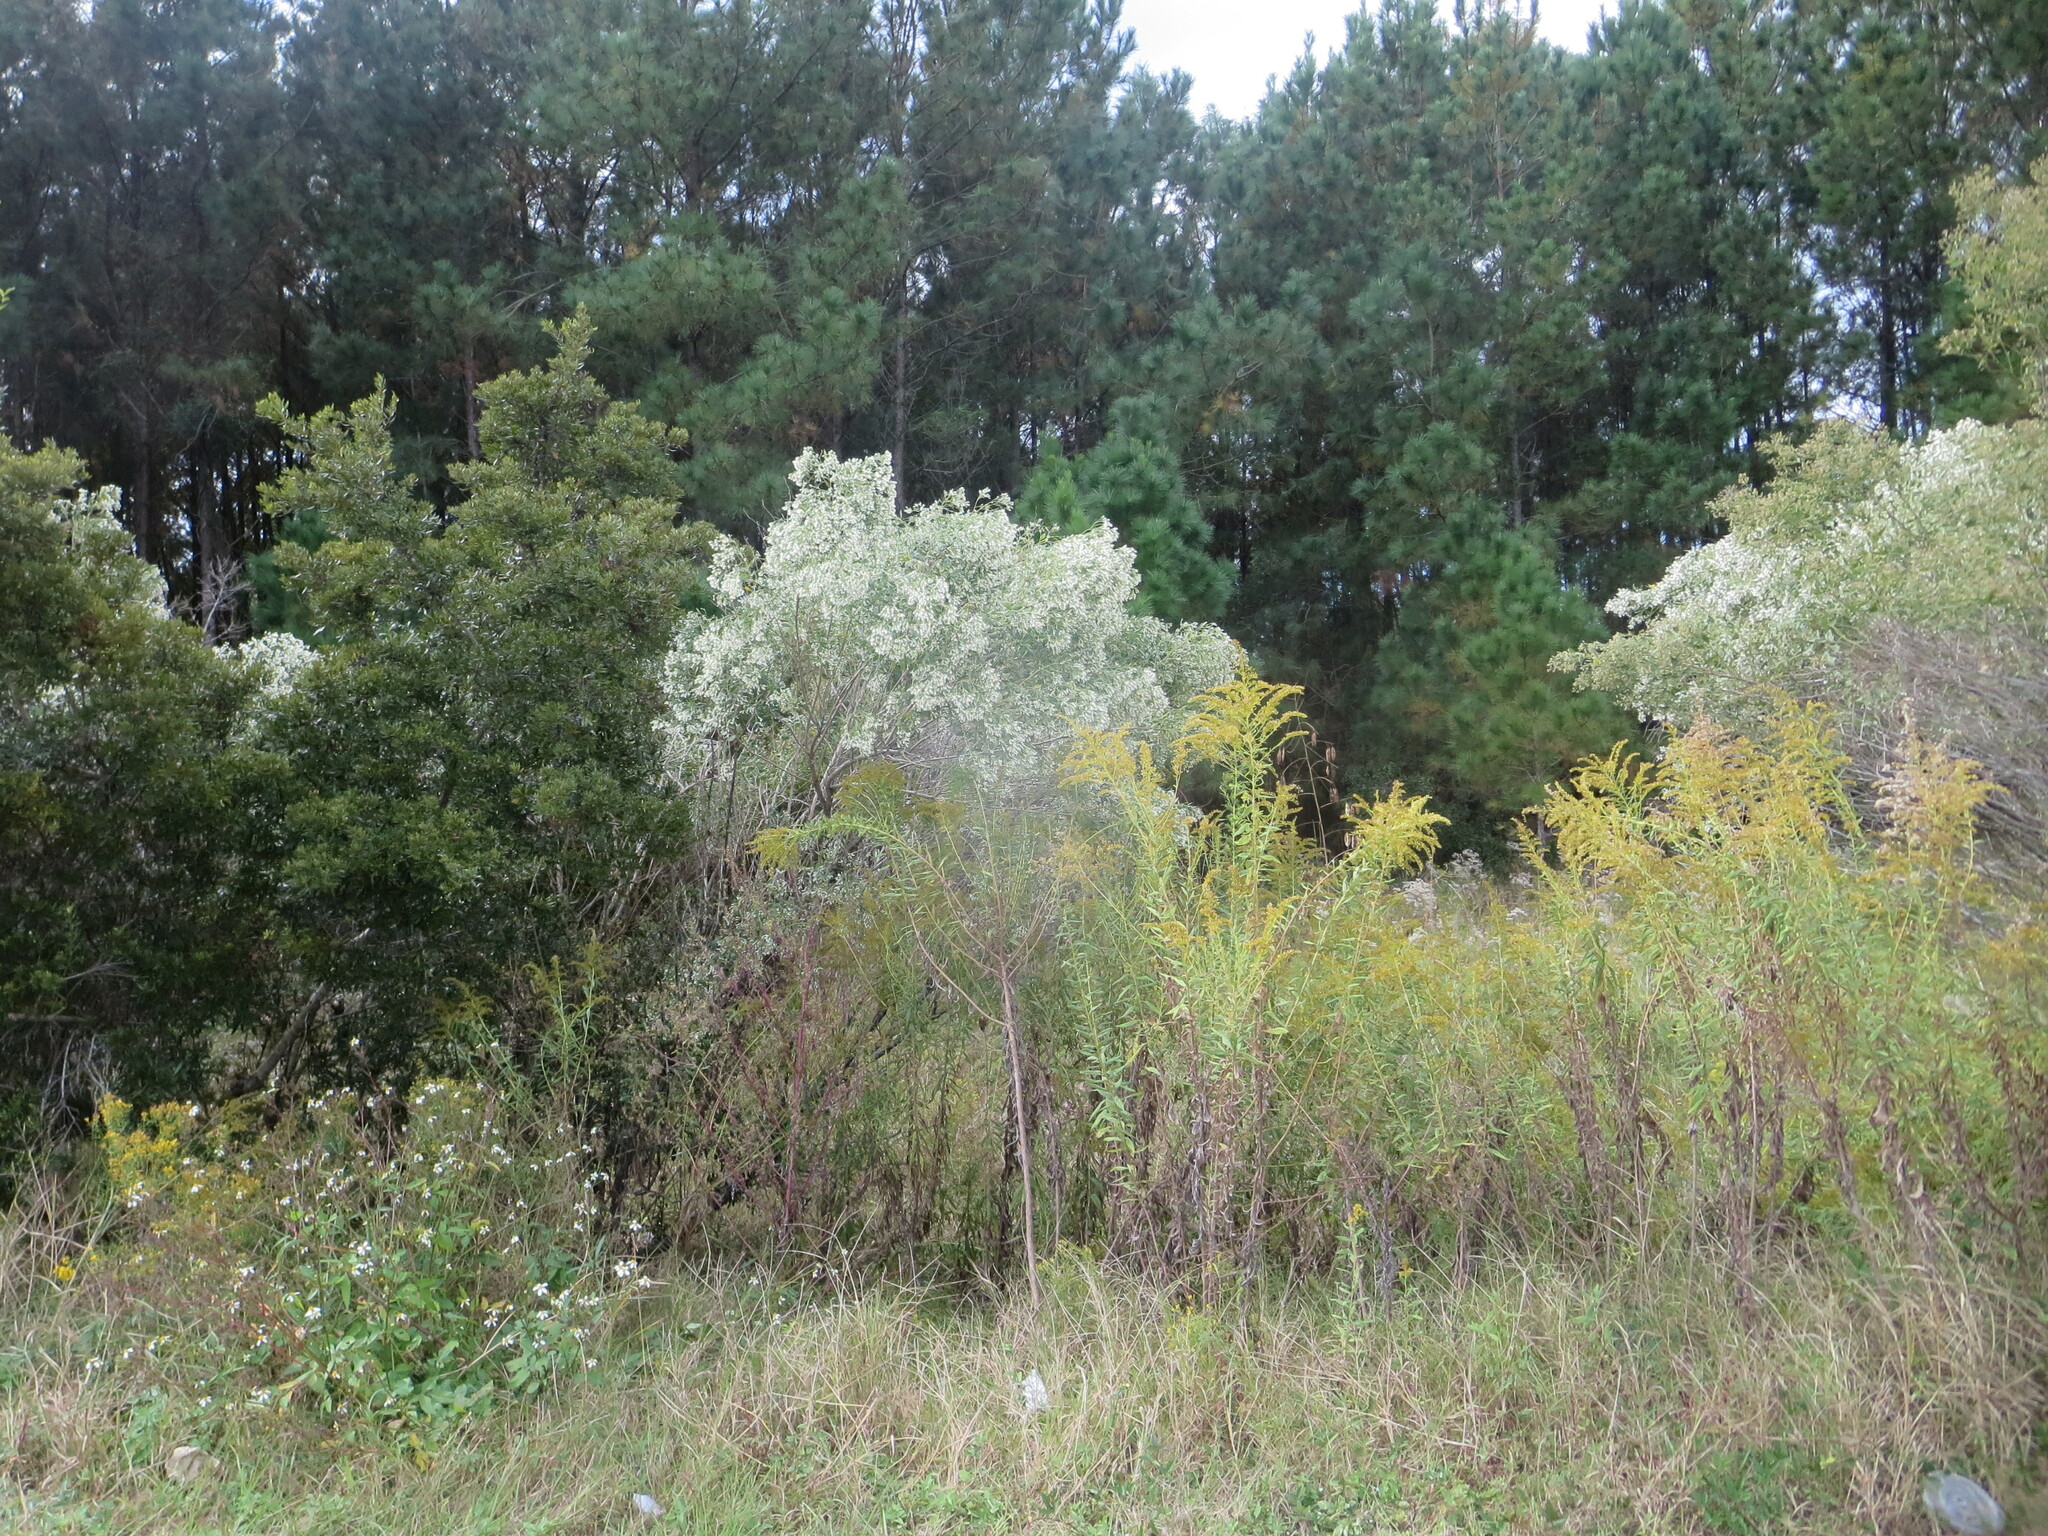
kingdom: Plantae
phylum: Tracheophyta
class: Magnoliopsida
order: Asterales
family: Asteraceae
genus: Baccharis
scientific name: Baccharis halimifolia
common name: Eastern baccharis
